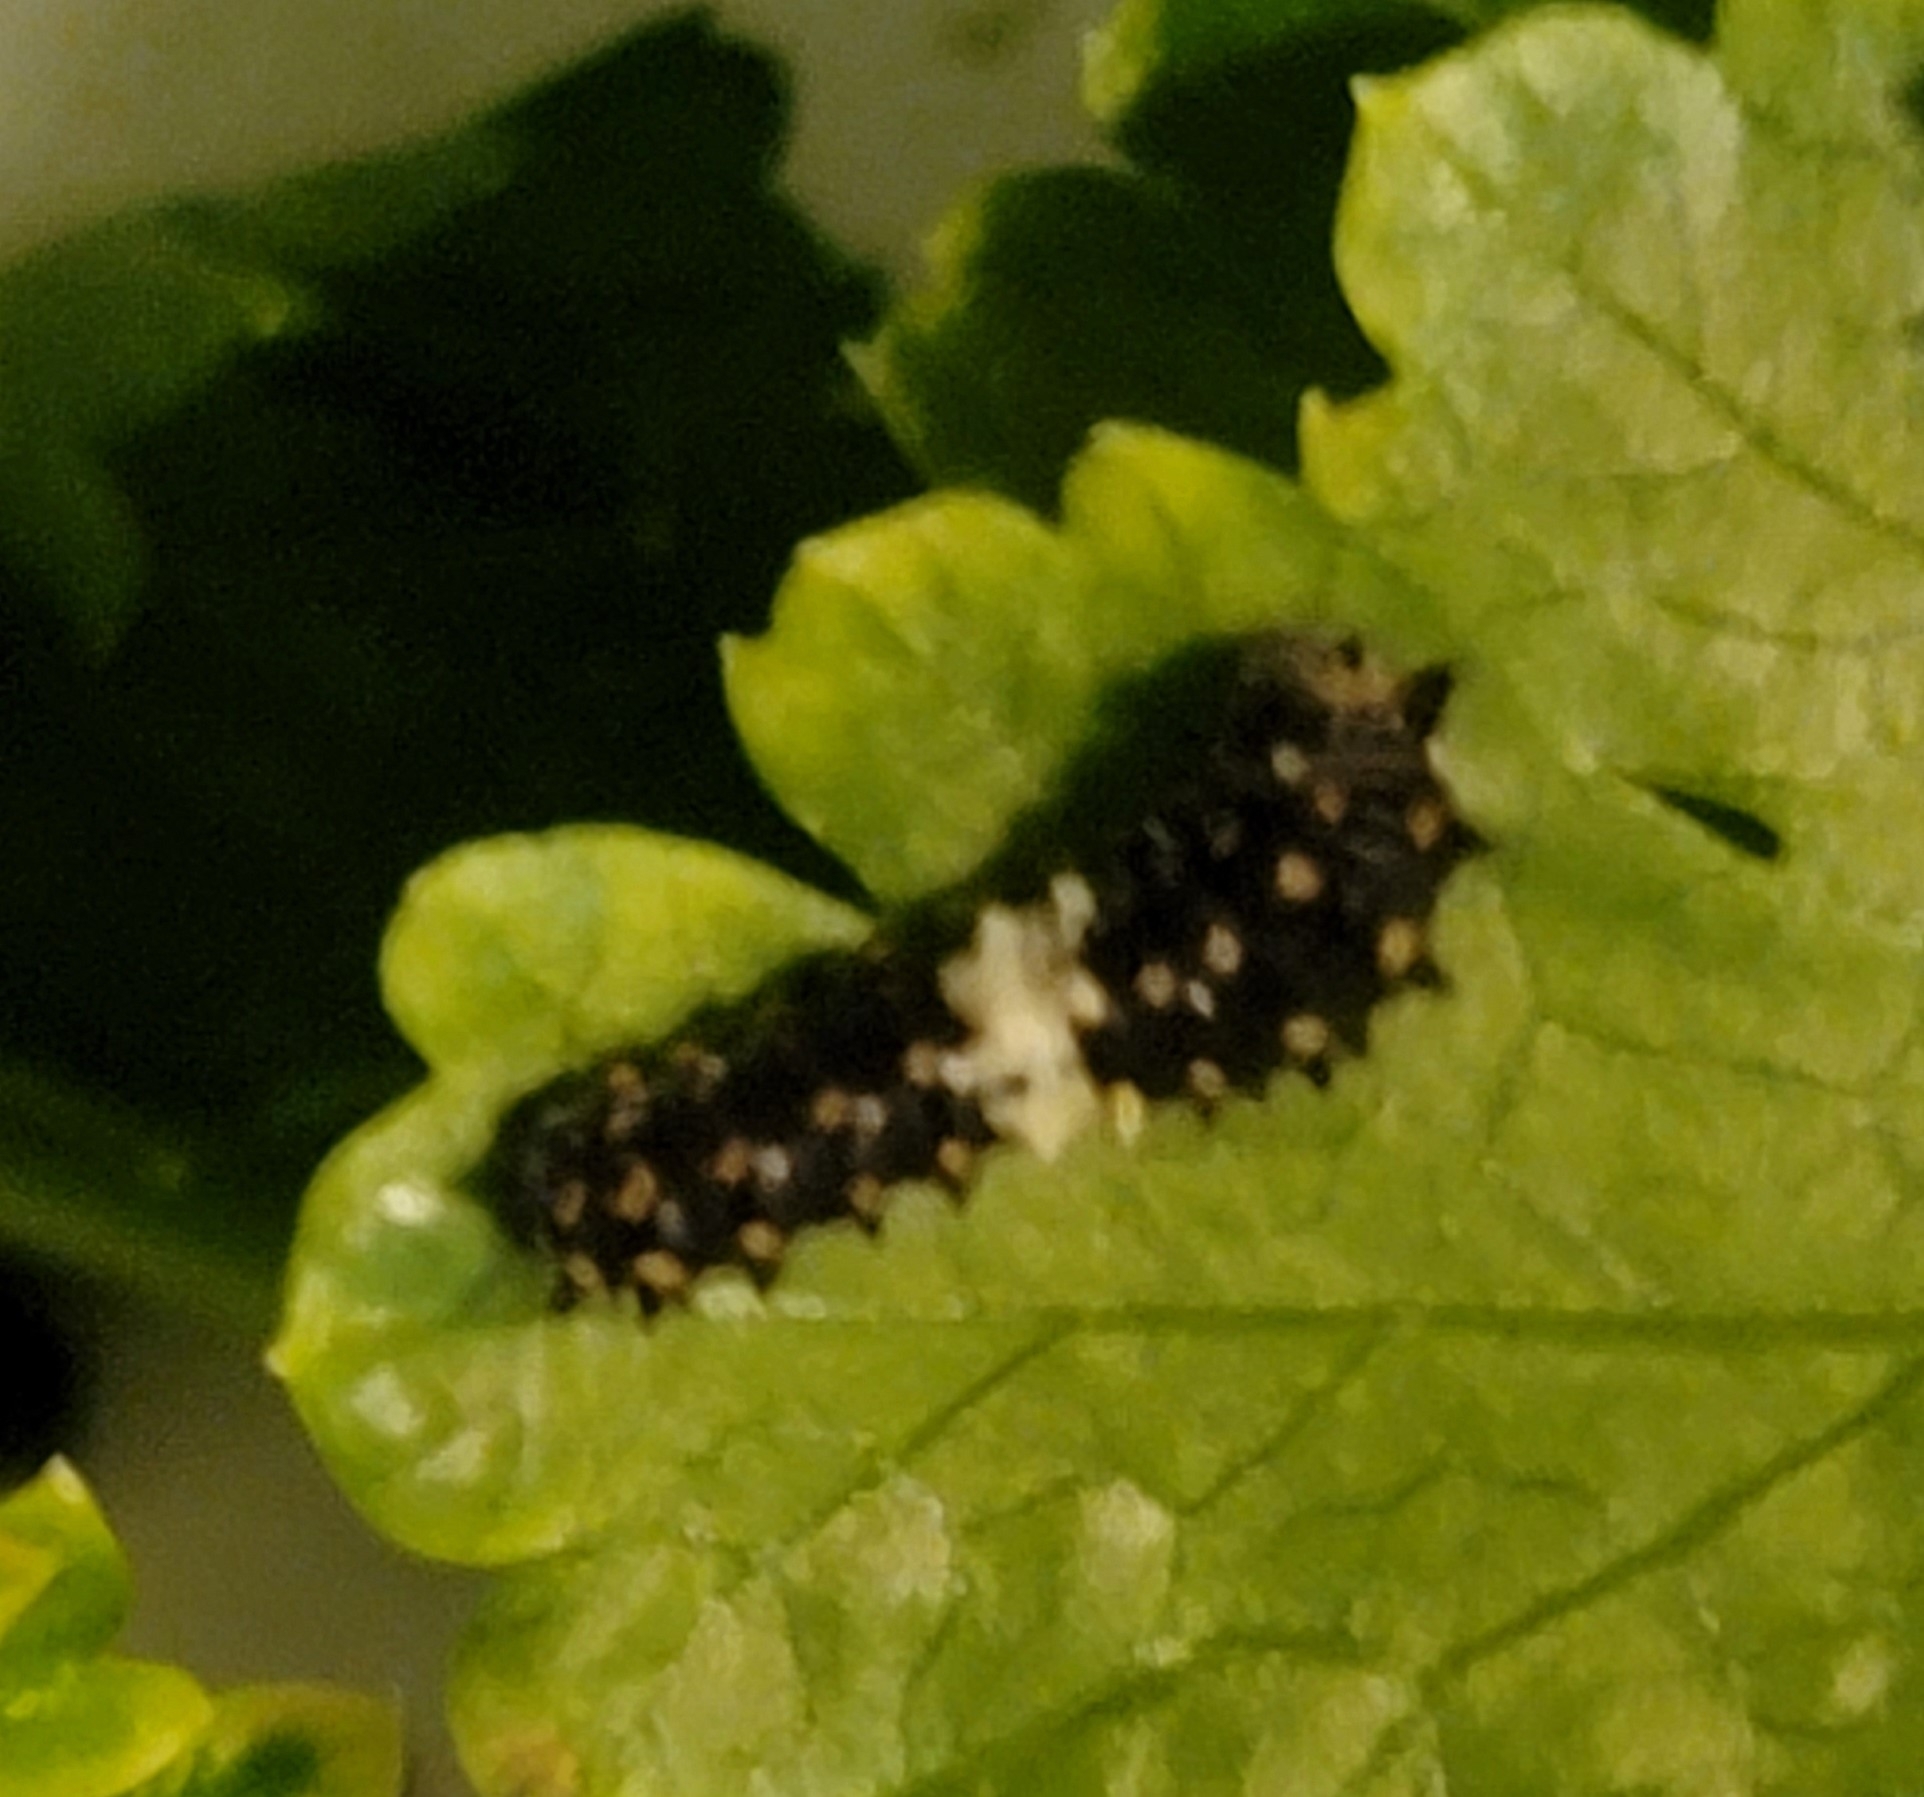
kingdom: Animalia
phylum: Arthropoda
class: Insecta
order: Lepidoptera
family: Papilionidae
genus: Papilio
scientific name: Papilio polyxenes
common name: Black swallowtail
